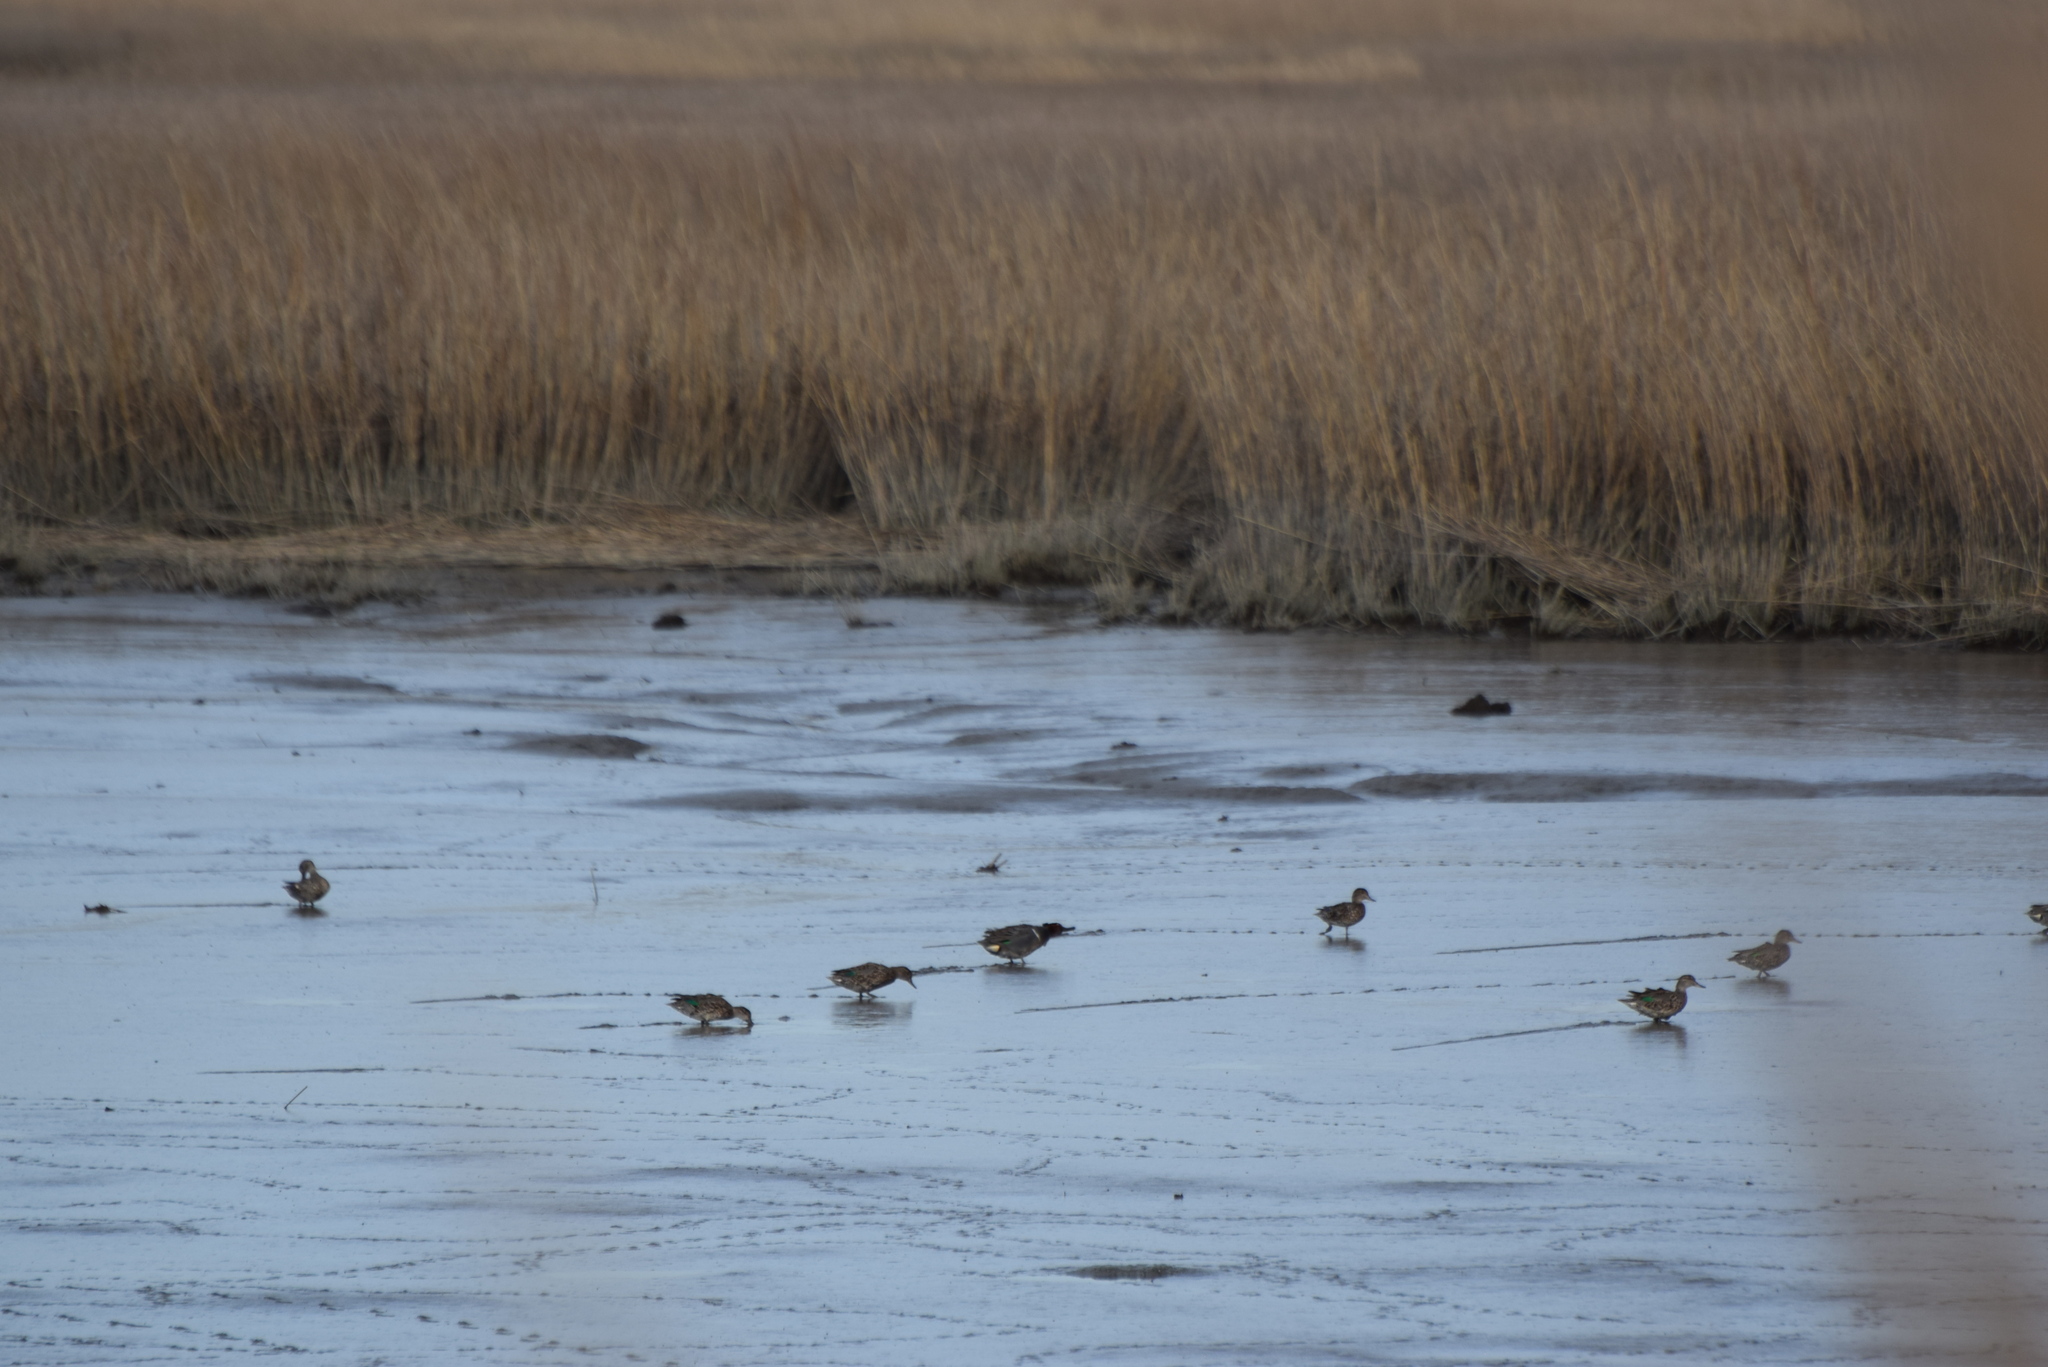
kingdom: Animalia
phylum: Chordata
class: Aves
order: Anseriformes
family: Anatidae
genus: Anas
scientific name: Anas crecca
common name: Eurasian teal
